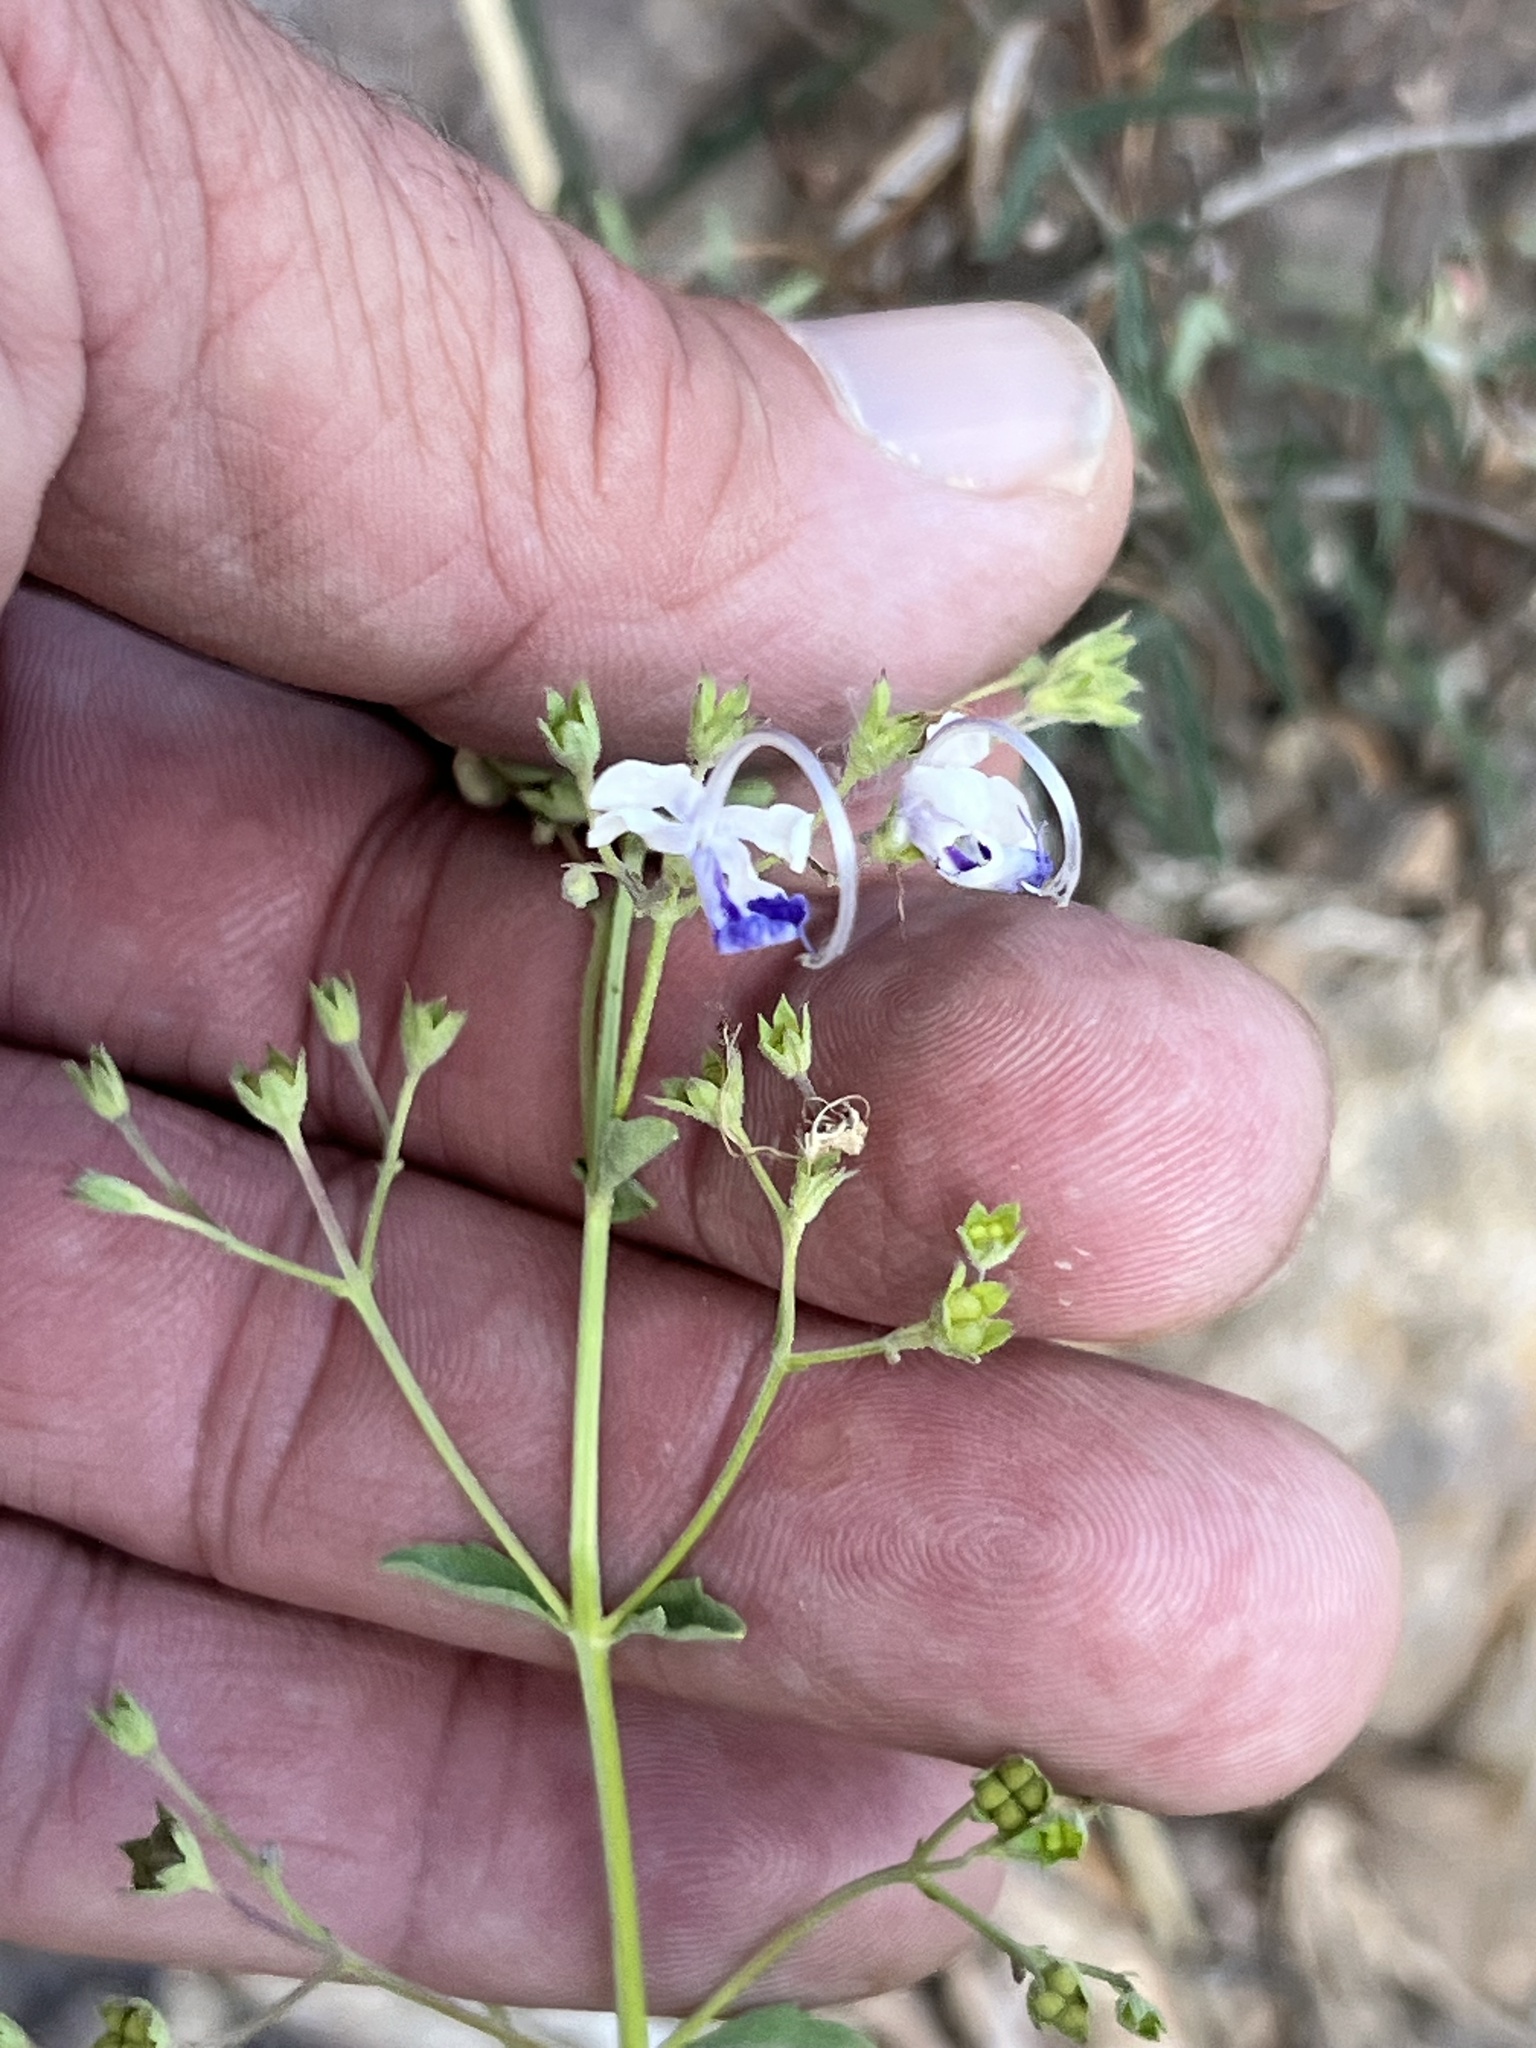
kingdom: Plantae
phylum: Tracheophyta
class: Magnoliopsida
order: Lamiales
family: Lamiaceae
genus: Trichostema
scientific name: Trichostema arizonicum
